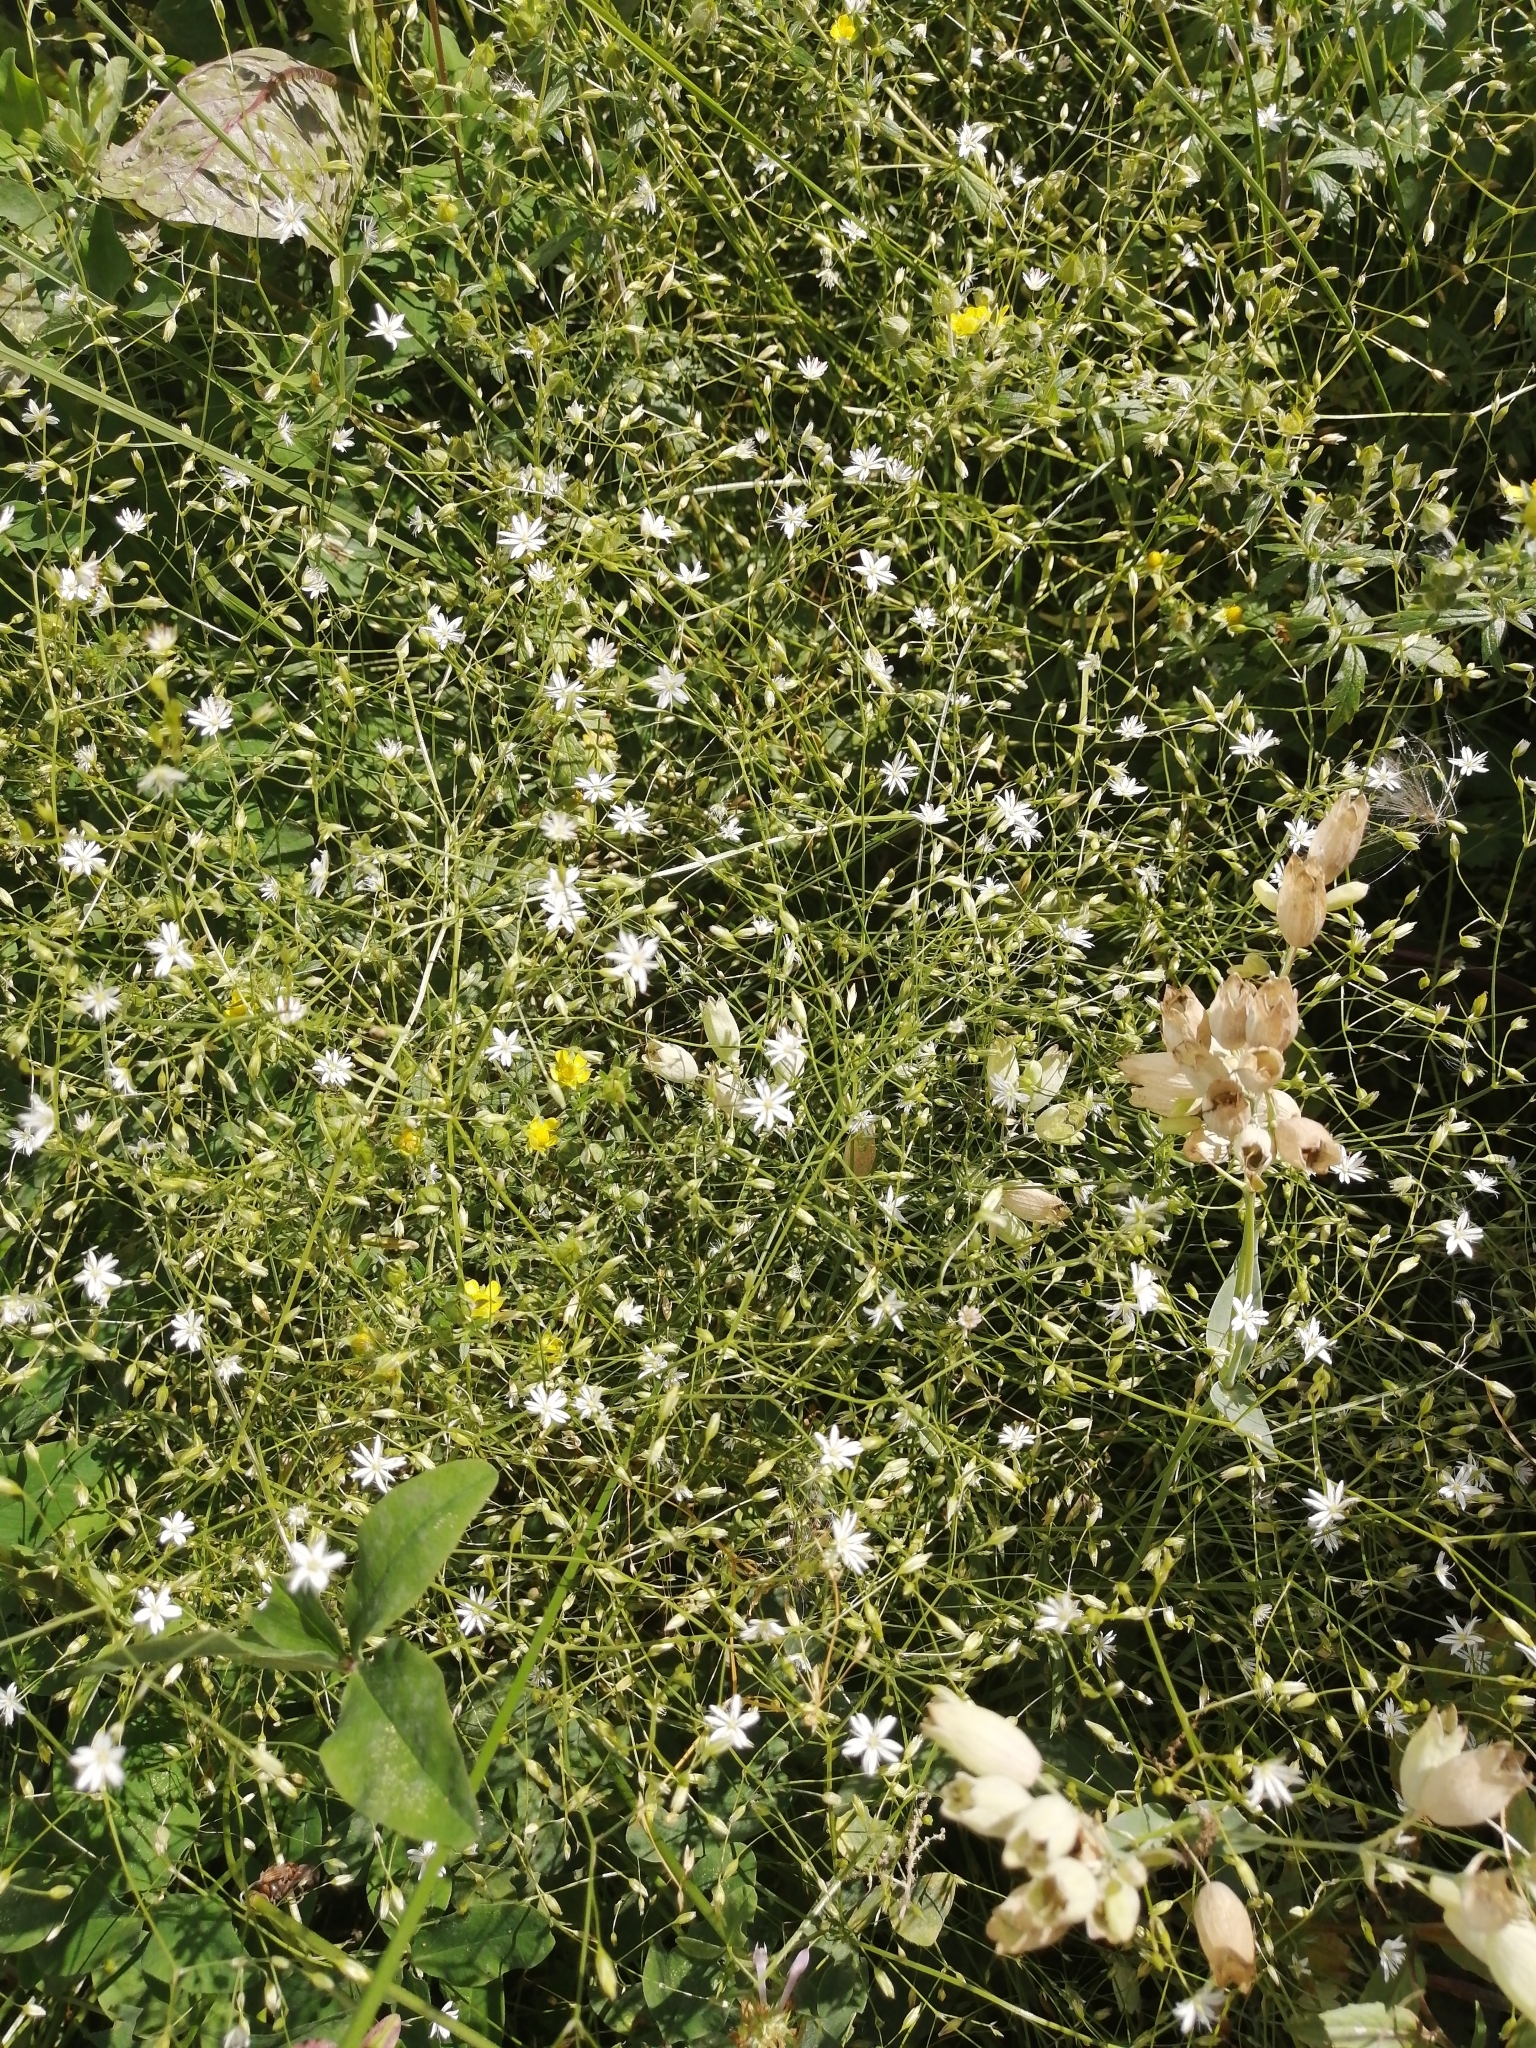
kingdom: Plantae
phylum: Tracheophyta
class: Magnoliopsida
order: Caryophyllales
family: Caryophyllaceae
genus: Stellaria
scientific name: Stellaria graminea
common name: Grass-like starwort
